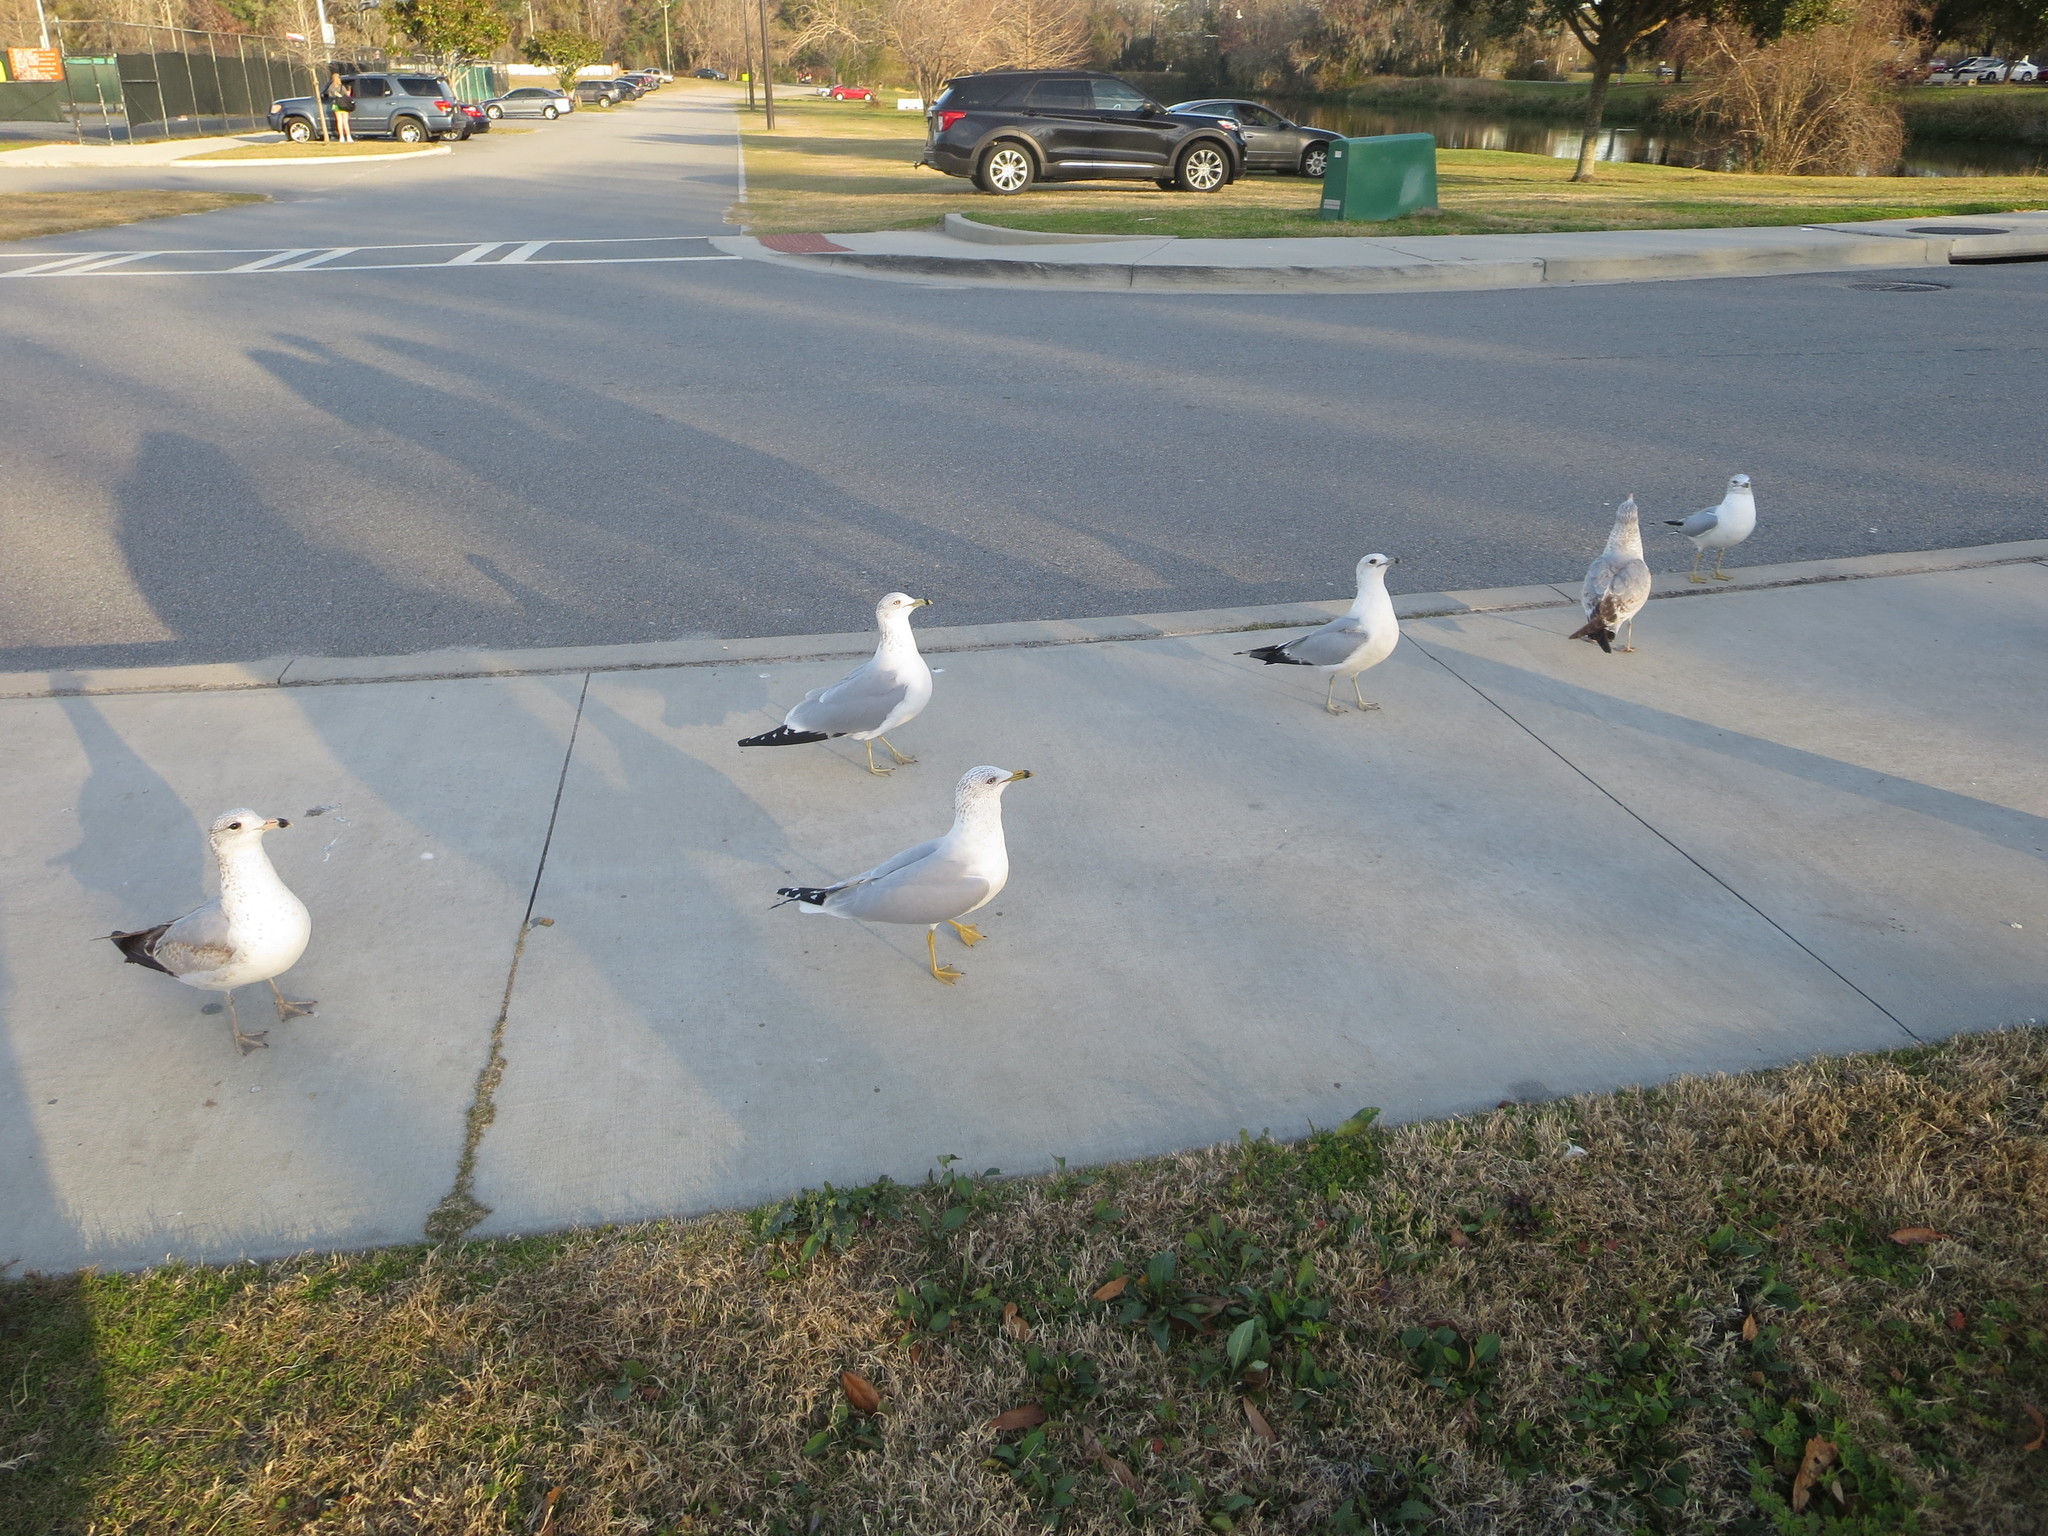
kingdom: Animalia
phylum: Chordata
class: Aves
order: Charadriiformes
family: Laridae
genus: Larus
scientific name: Larus delawarensis
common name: Ring-billed gull
